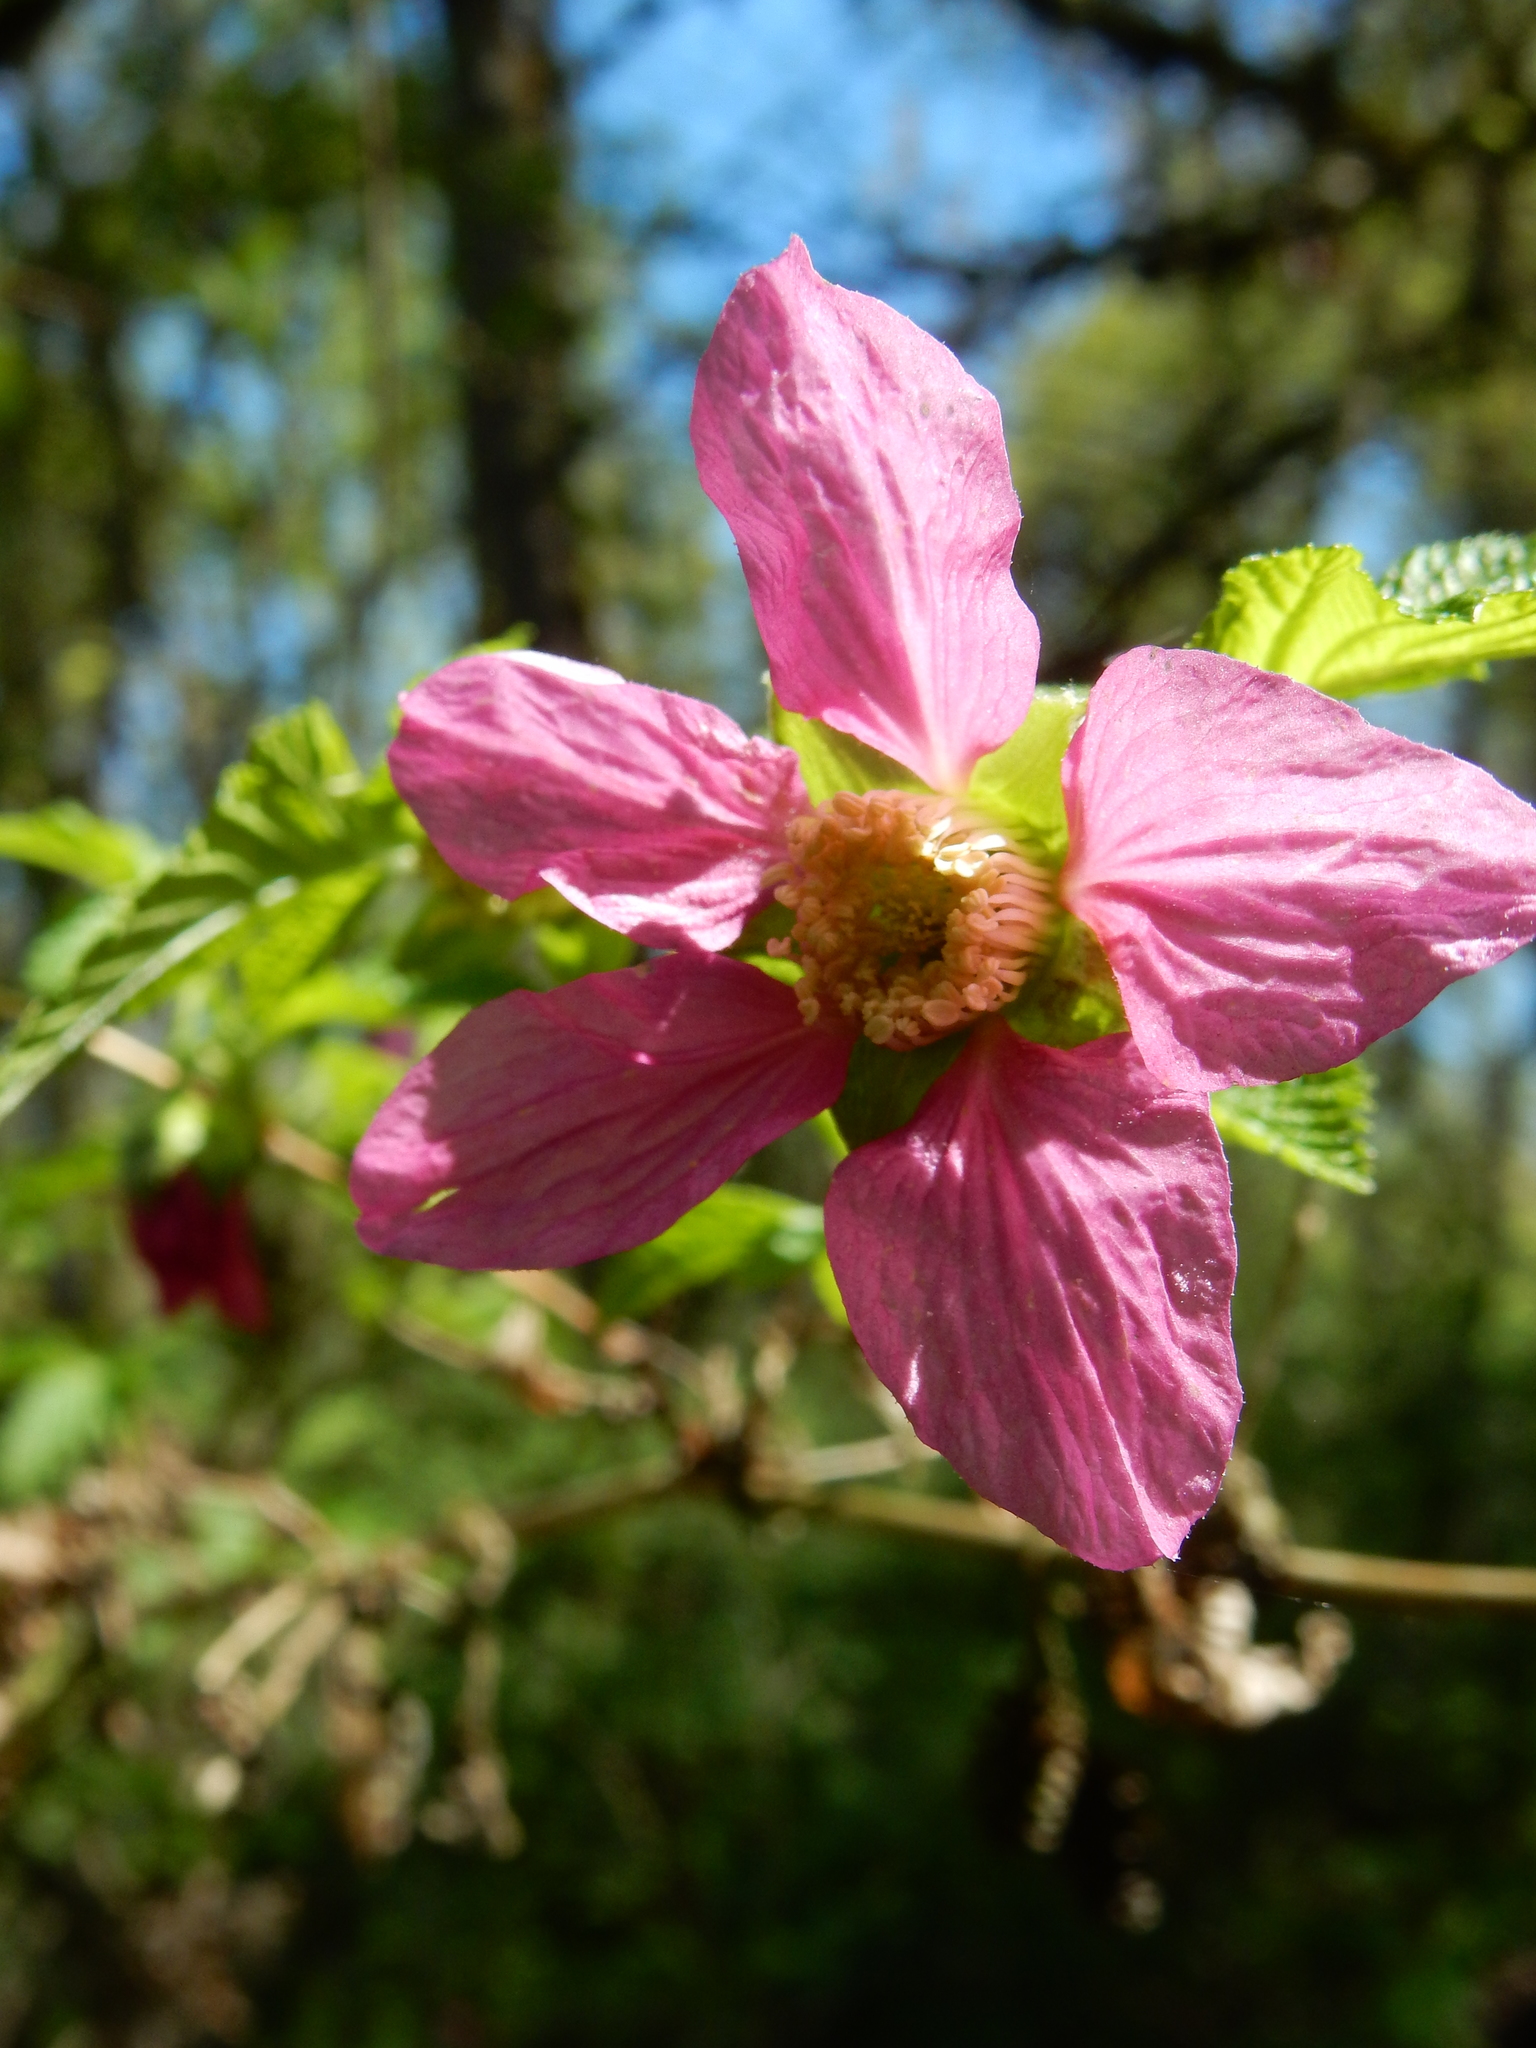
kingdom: Plantae
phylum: Tracheophyta
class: Magnoliopsida
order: Rosales
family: Rosaceae
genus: Rubus
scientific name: Rubus spectabilis
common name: Salmonberry
